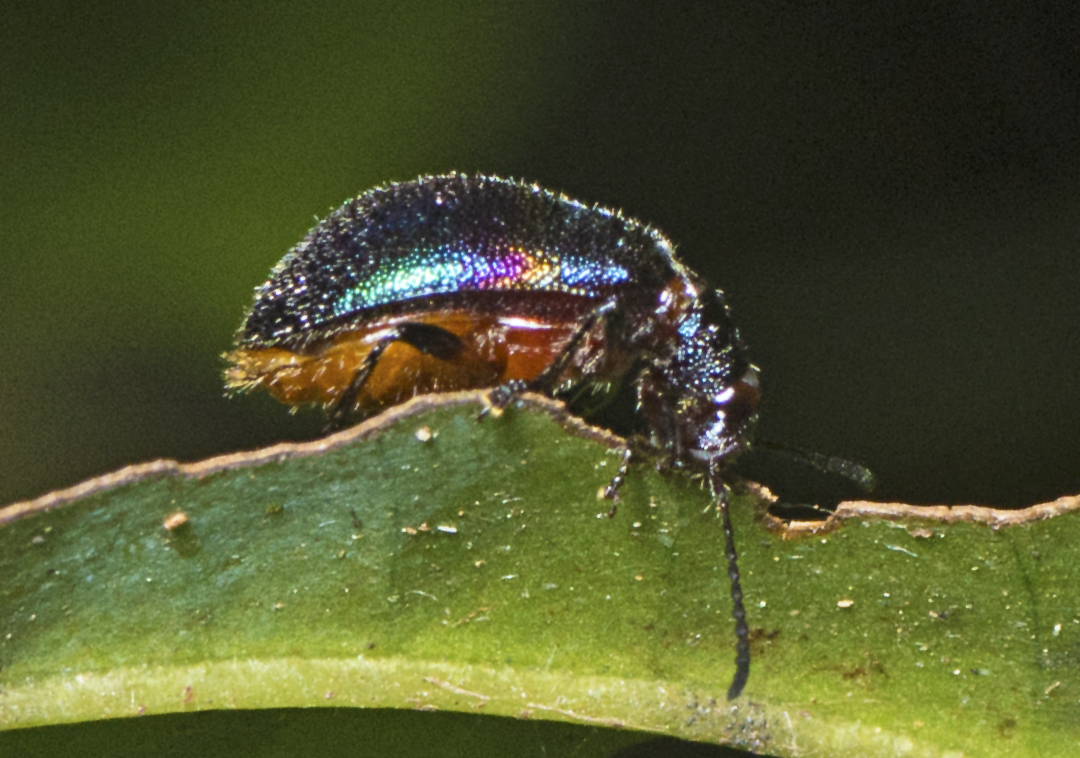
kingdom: Animalia
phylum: Arthropoda
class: Insecta
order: Coleoptera
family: Tenebrionidae
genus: Ecnolagria
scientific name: Ecnolagria
